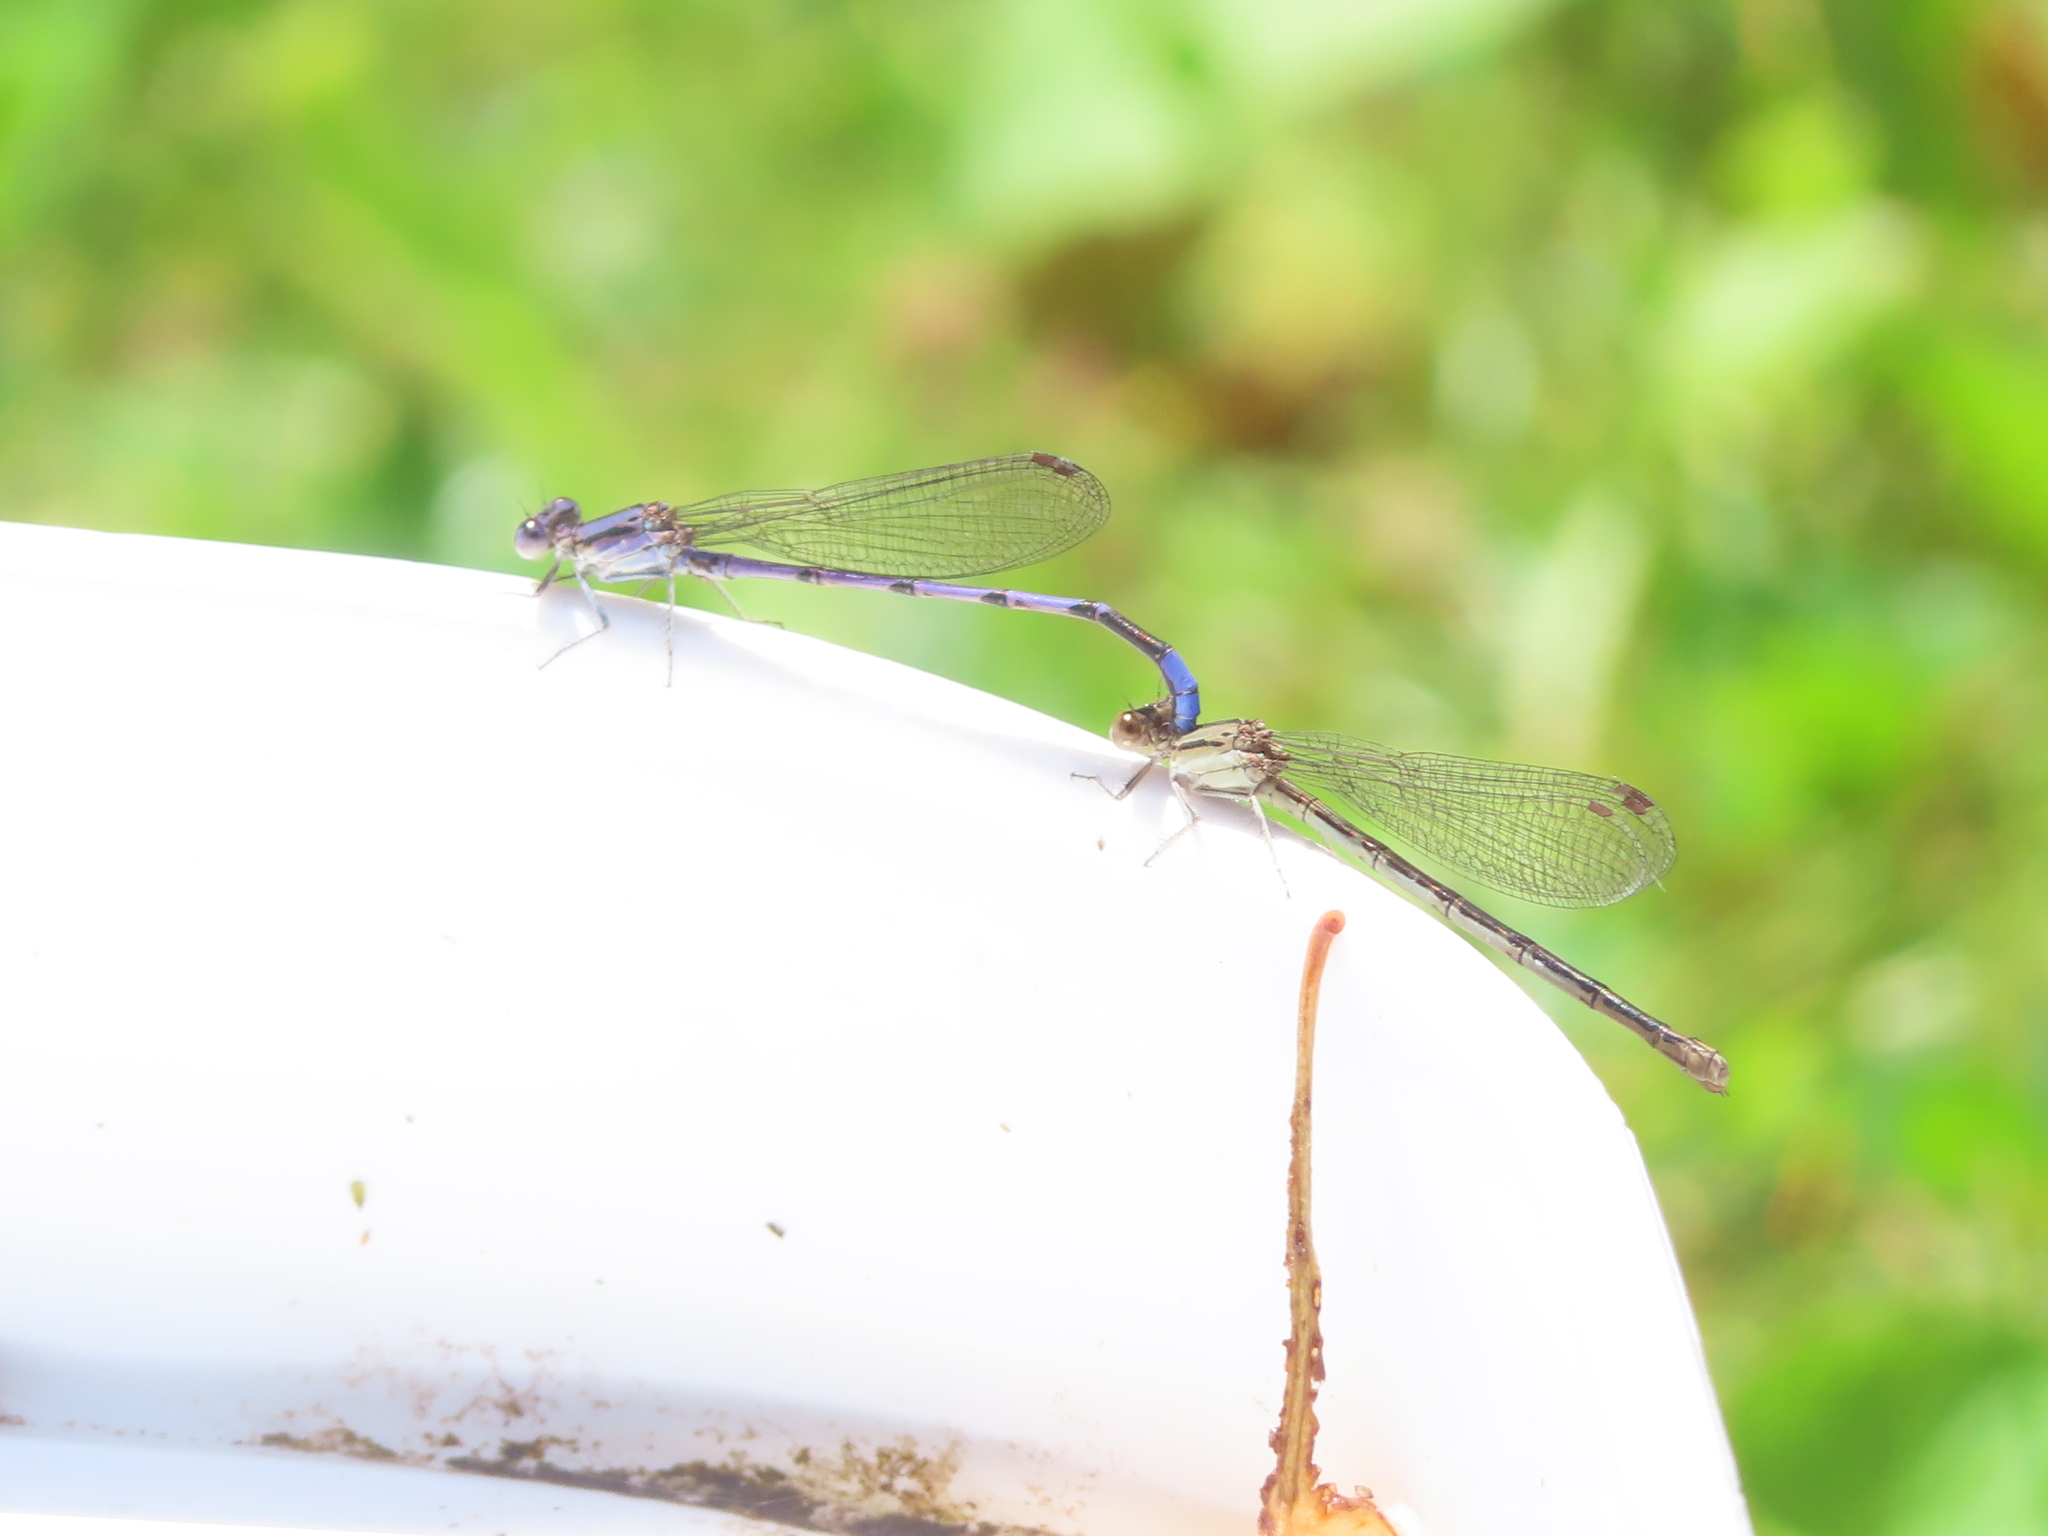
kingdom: Animalia
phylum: Arthropoda
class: Insecta
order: Odonata
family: Coenagrionidae
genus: Argia
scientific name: Argia fumipennis
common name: Variable dancer
